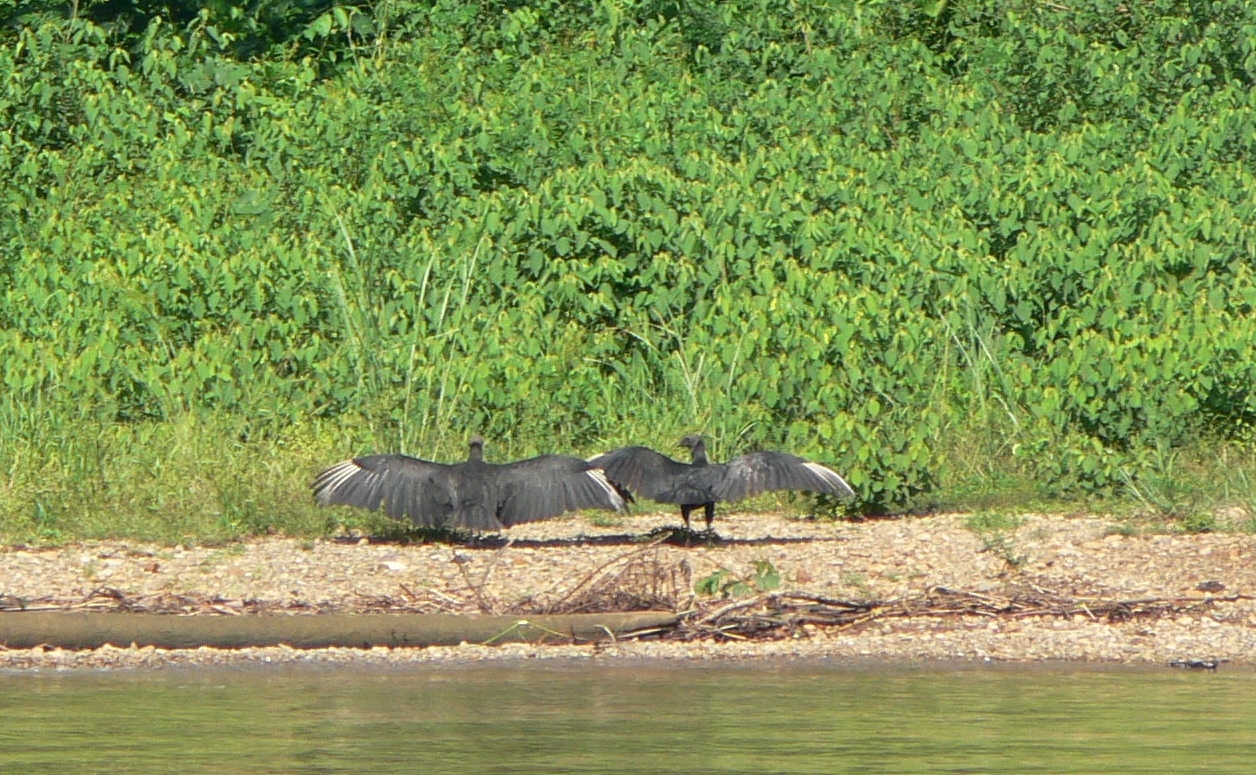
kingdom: Animalia
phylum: Chordata
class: Aves
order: Accipitriformes
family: Cathartidae
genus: Coragyps
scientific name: Coragyps atratus
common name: Black vulture
